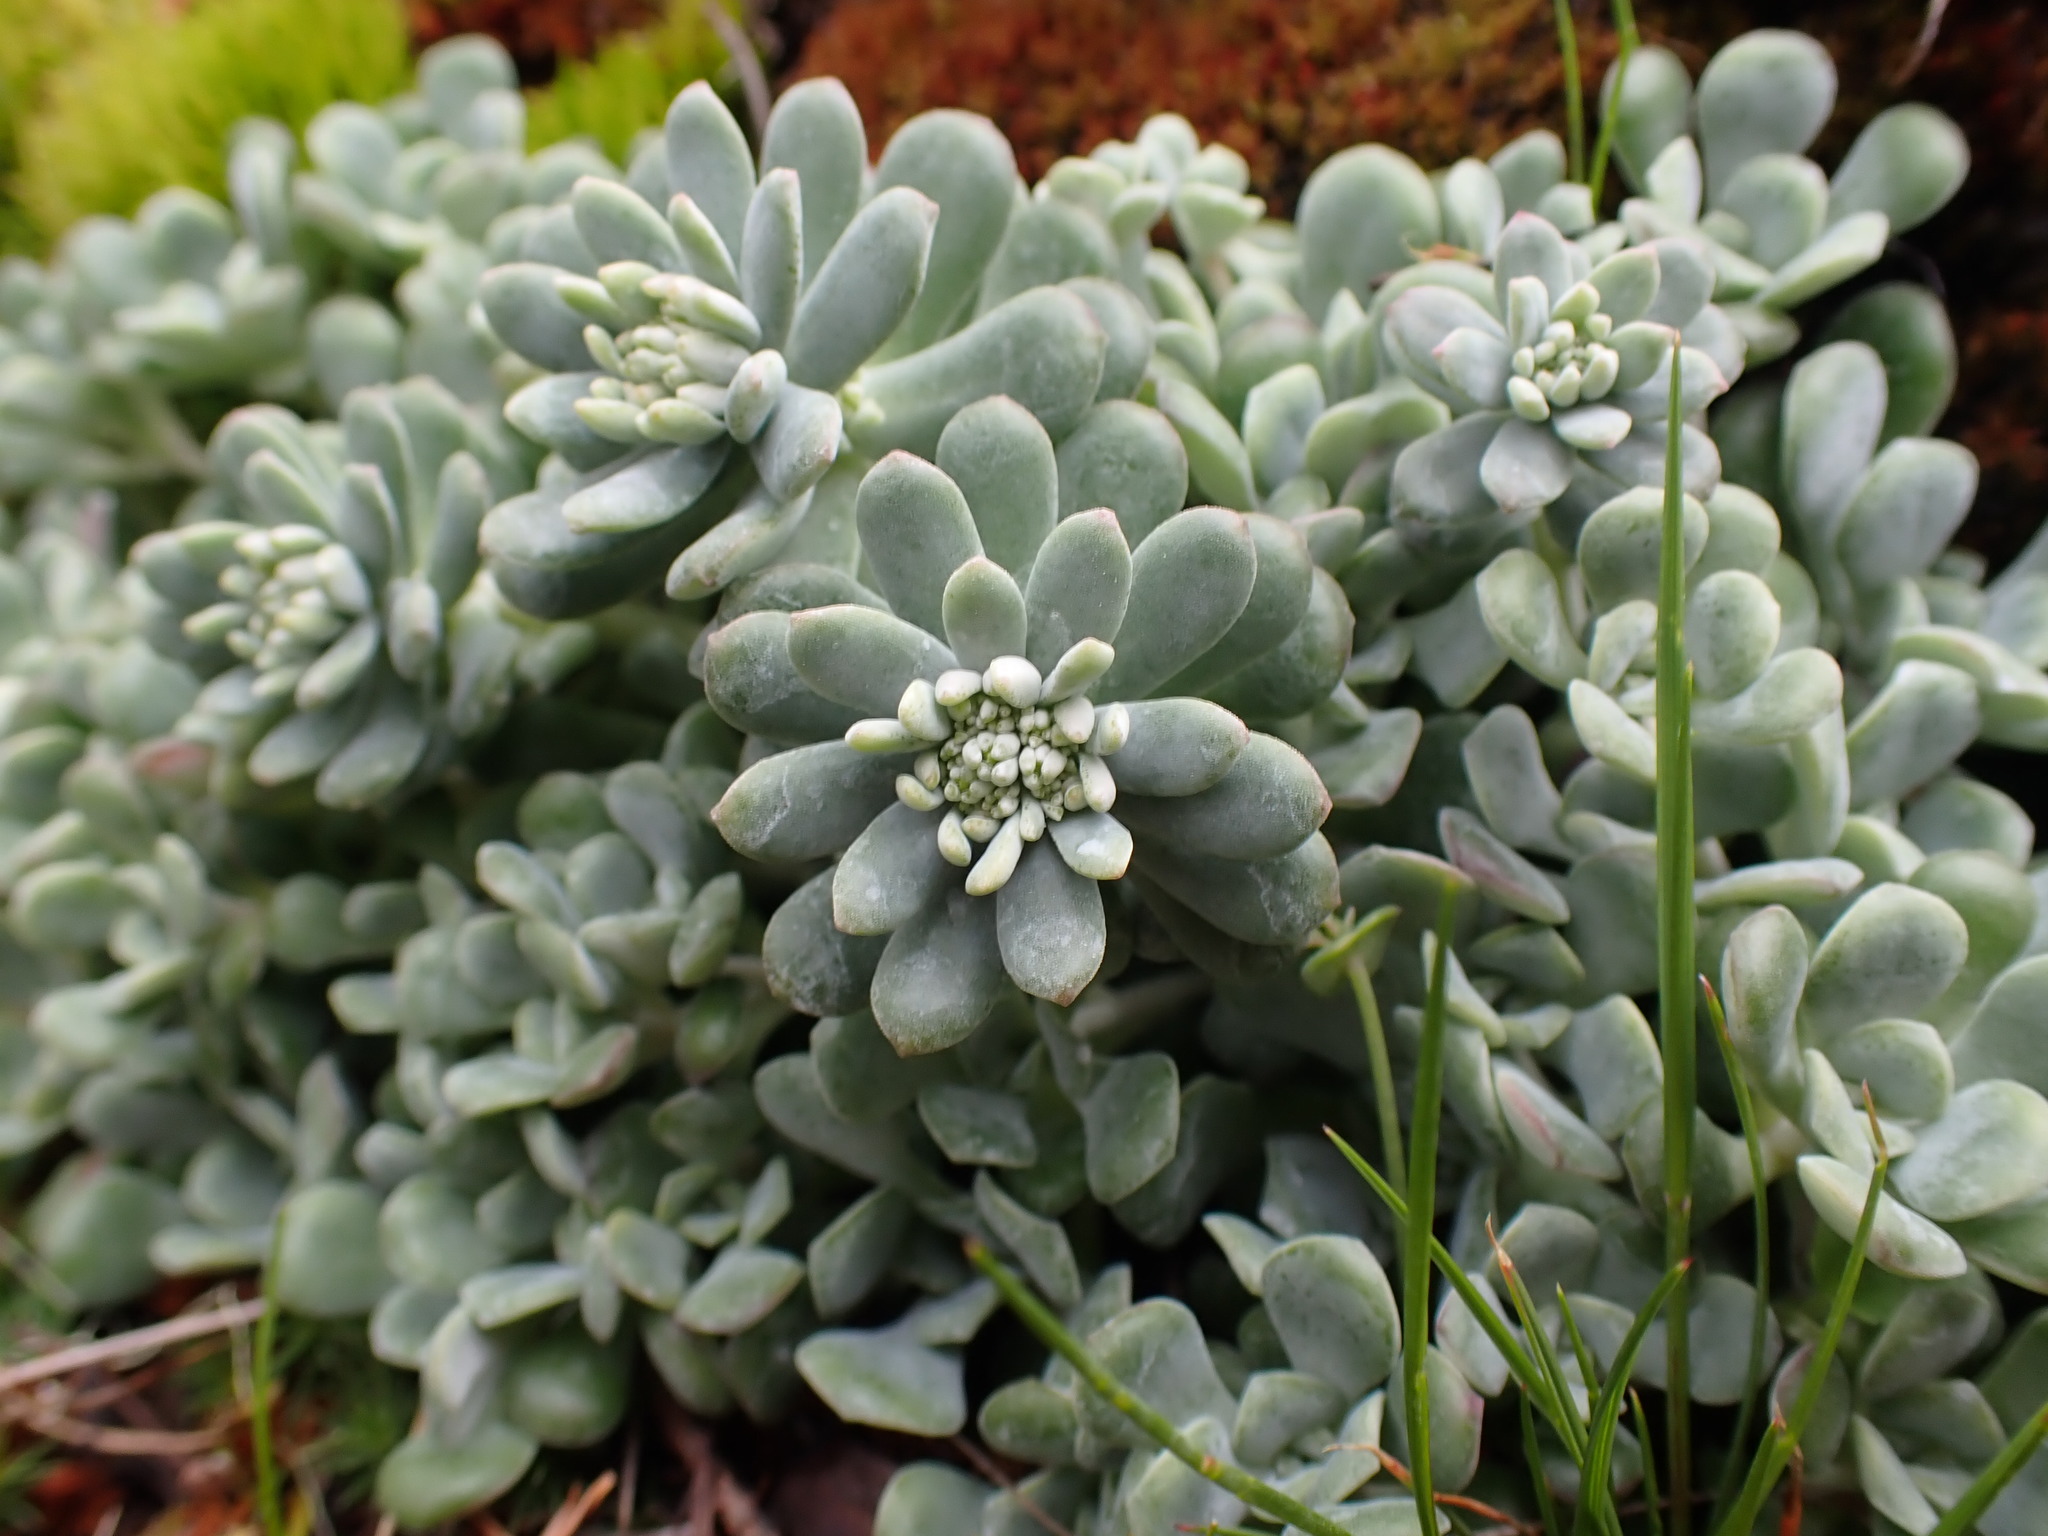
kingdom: Plantae
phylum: Tracheophyta
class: Magnoliopsida
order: Saxifragales
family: Crassulaceae
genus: Sedum
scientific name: Sedum spathulifolium
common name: Colorado stonecrop
